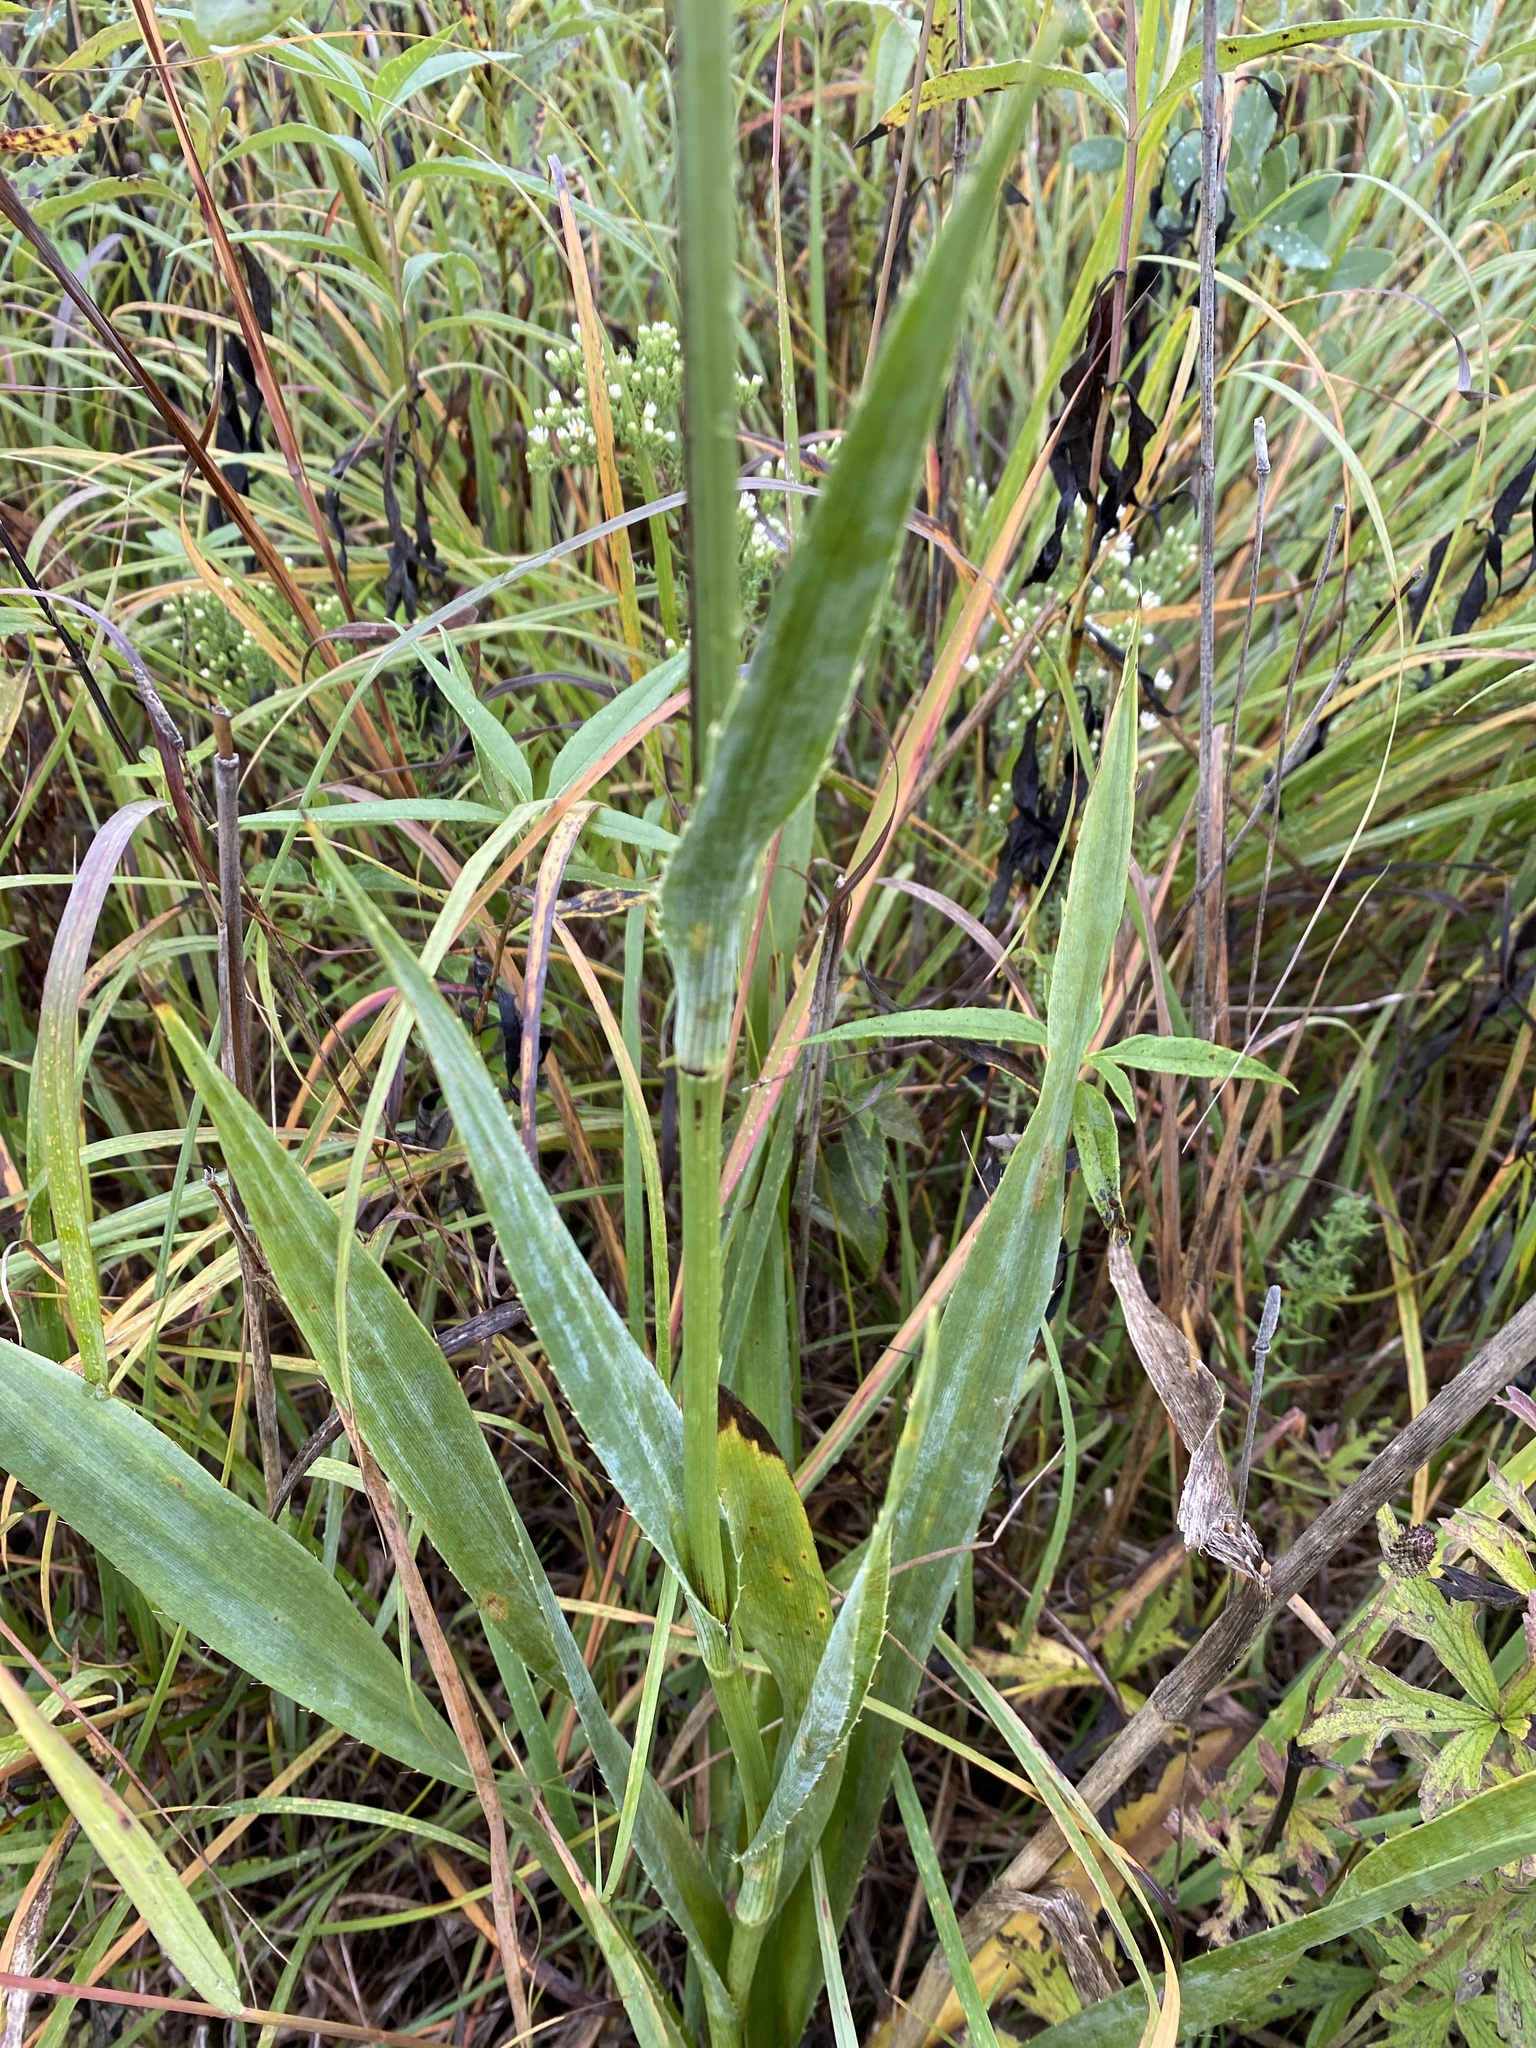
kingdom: Plantae
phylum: Tracheophyta
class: Magnoliopsida
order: Apiales
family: Apiaceae
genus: Eryngium
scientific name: Eryngium yuccifolium
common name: Button eryngo
